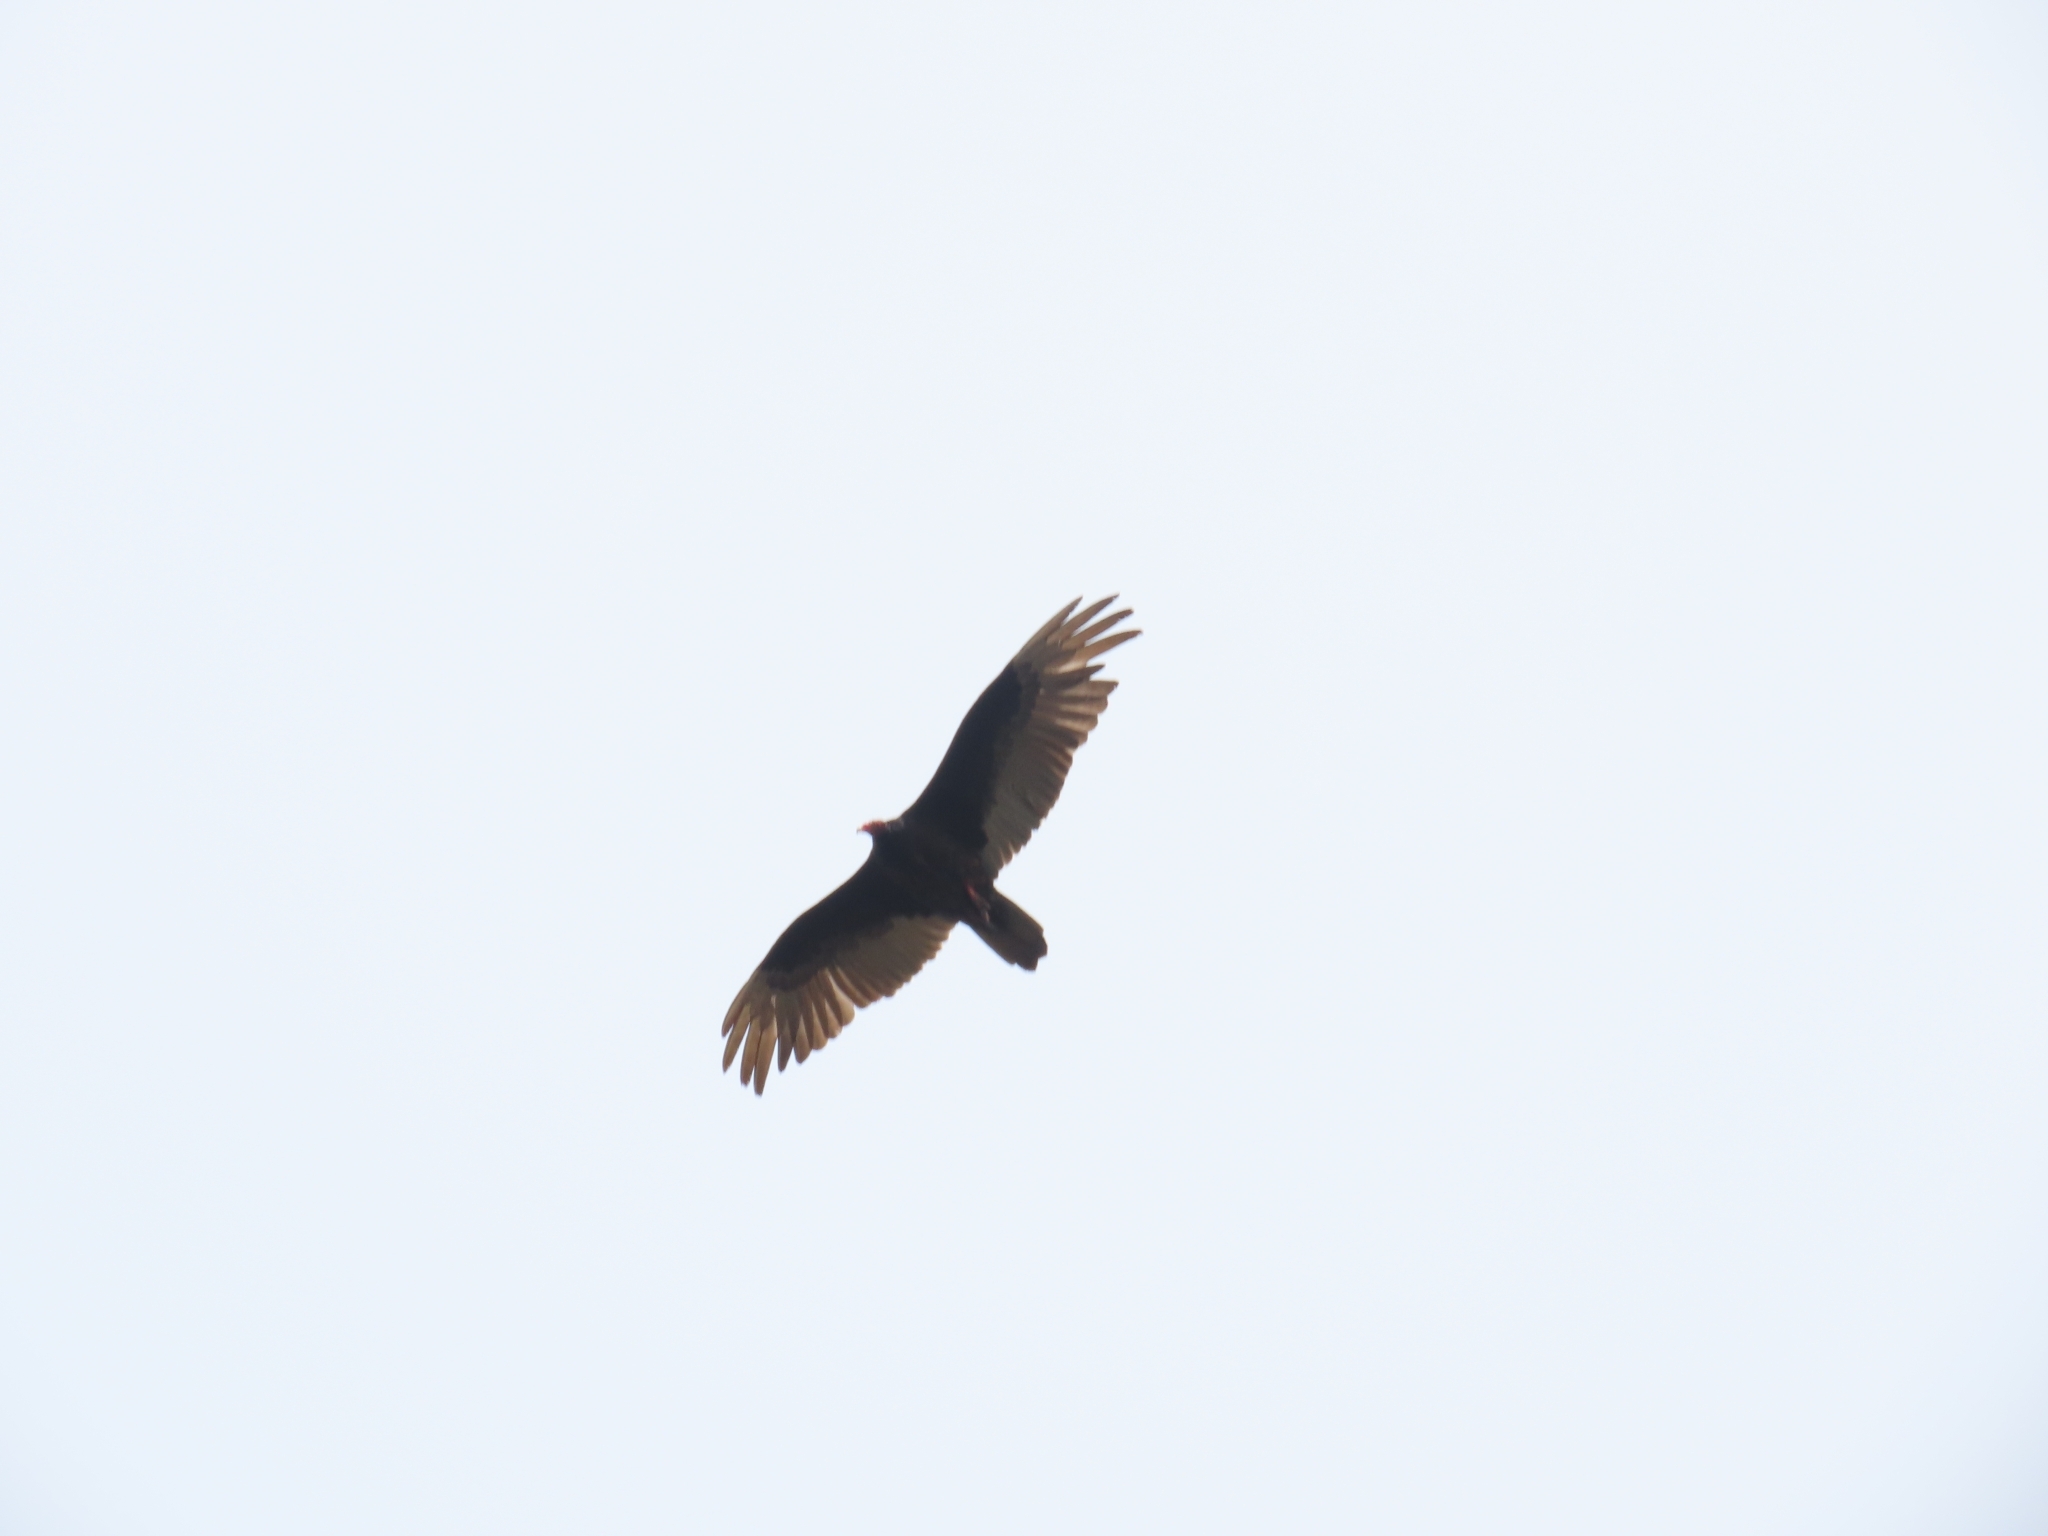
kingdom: Animalia
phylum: Chordata
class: Aves
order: Accipitriformes
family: Cathartidae
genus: Cathartes
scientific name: Cathartes aura
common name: Turkey vulture
